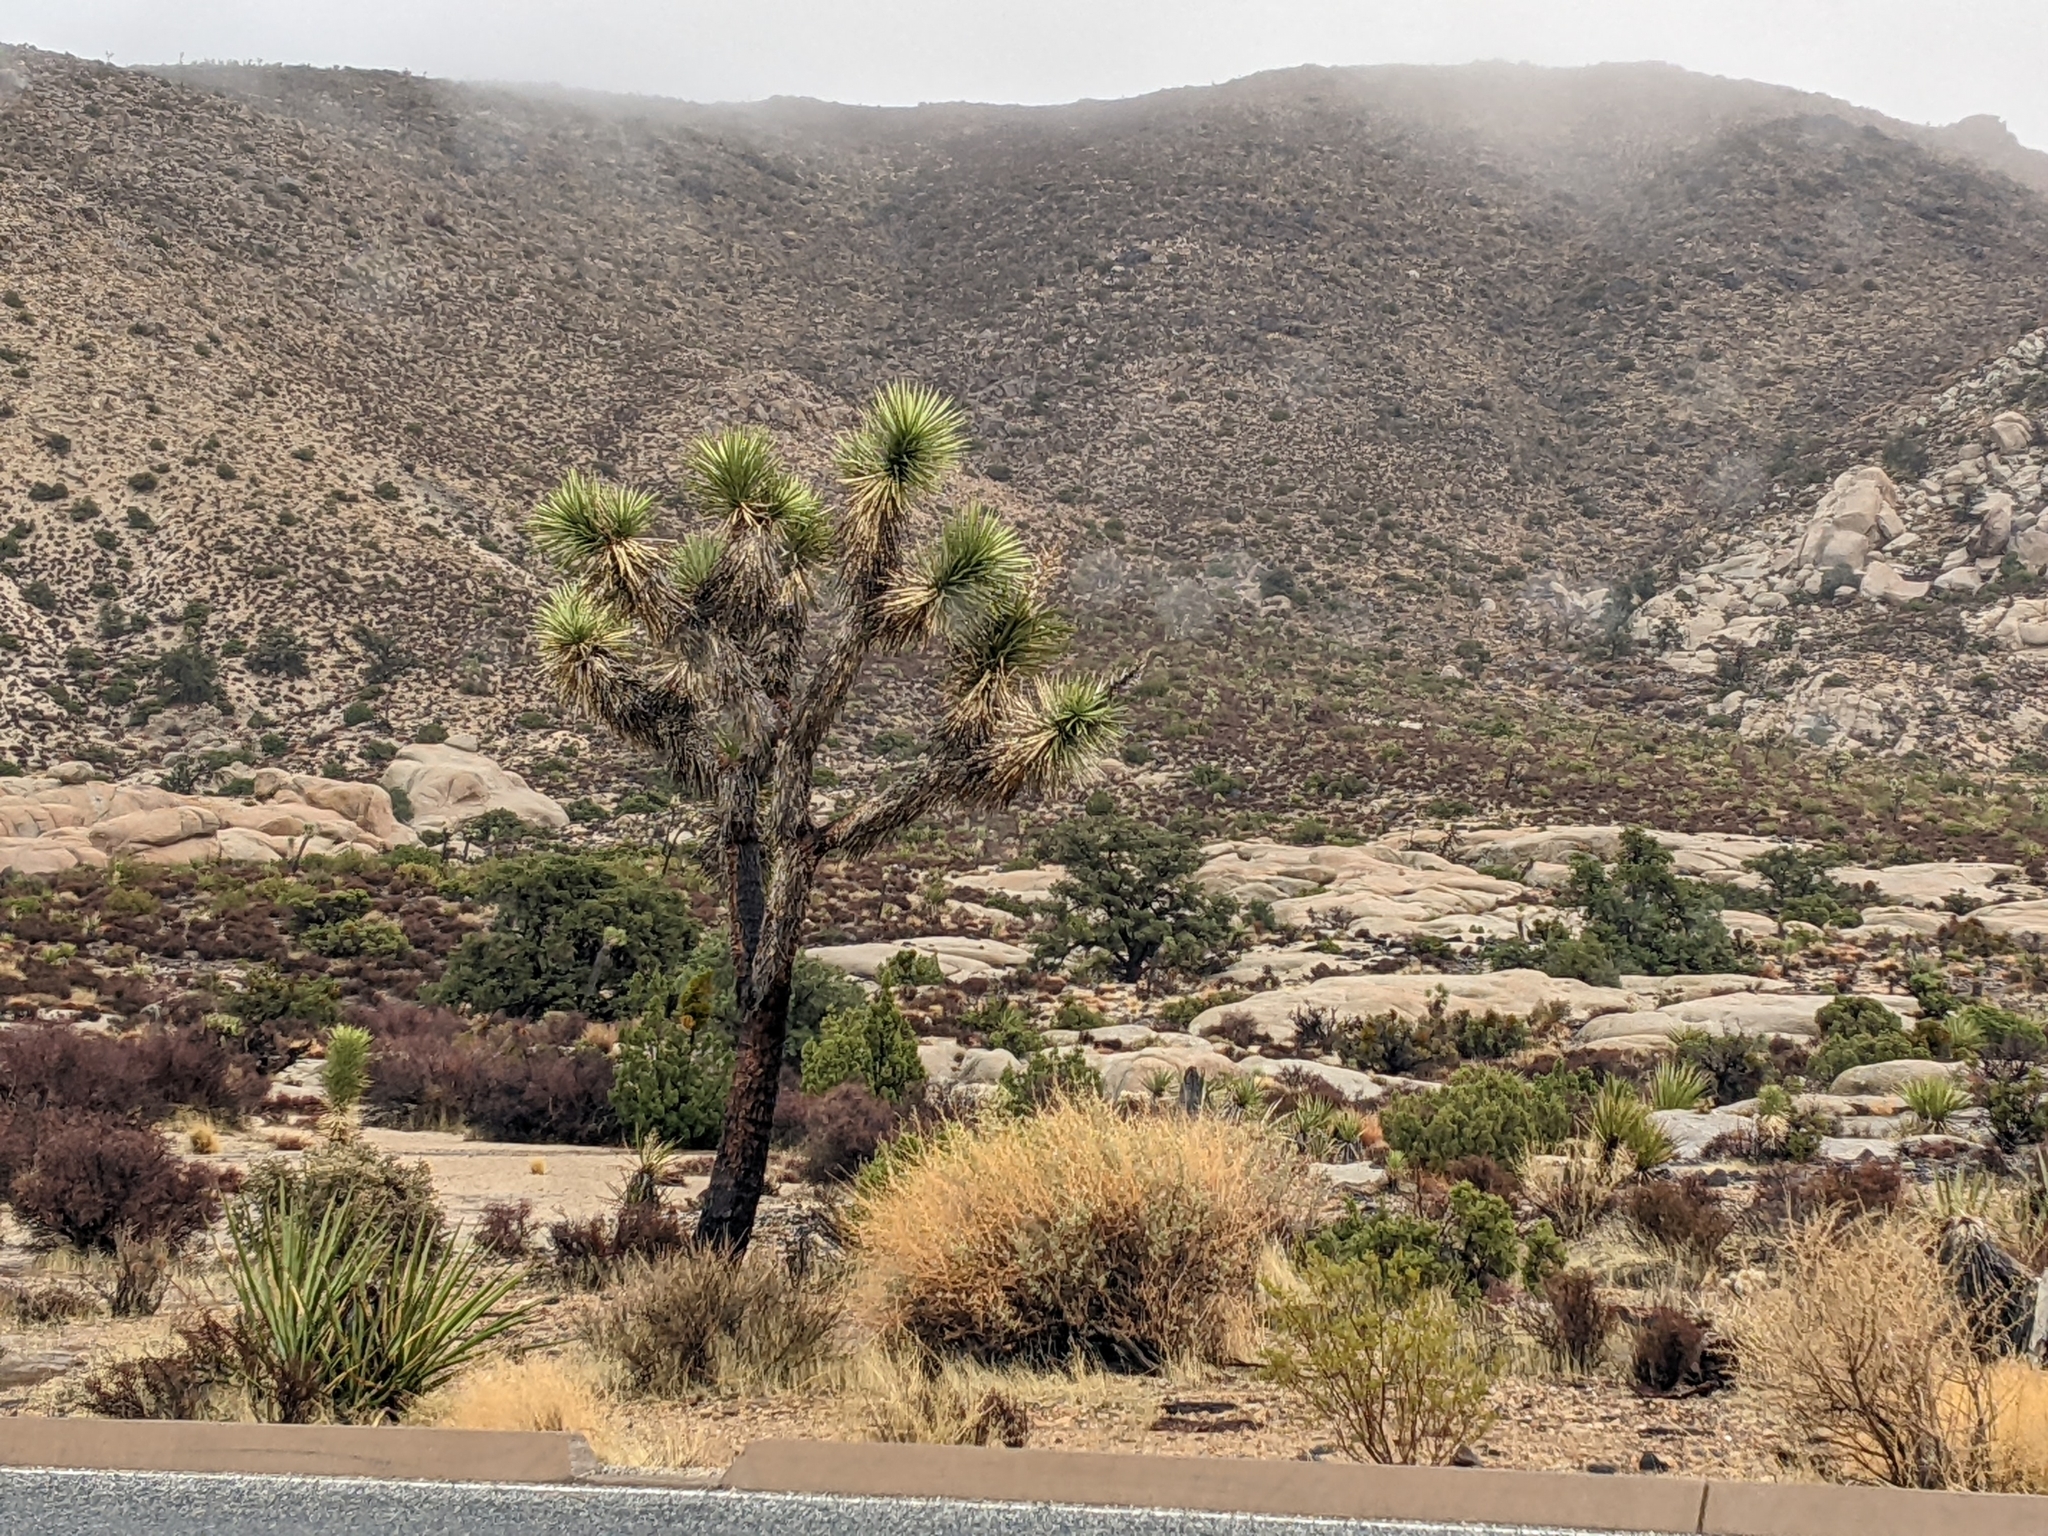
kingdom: Plantae
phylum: Tracheophyta
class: Liliopsida
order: Asparagales
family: Asparagaceae
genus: Yucca
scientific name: Yucca brevifolia
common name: Joshua tree
